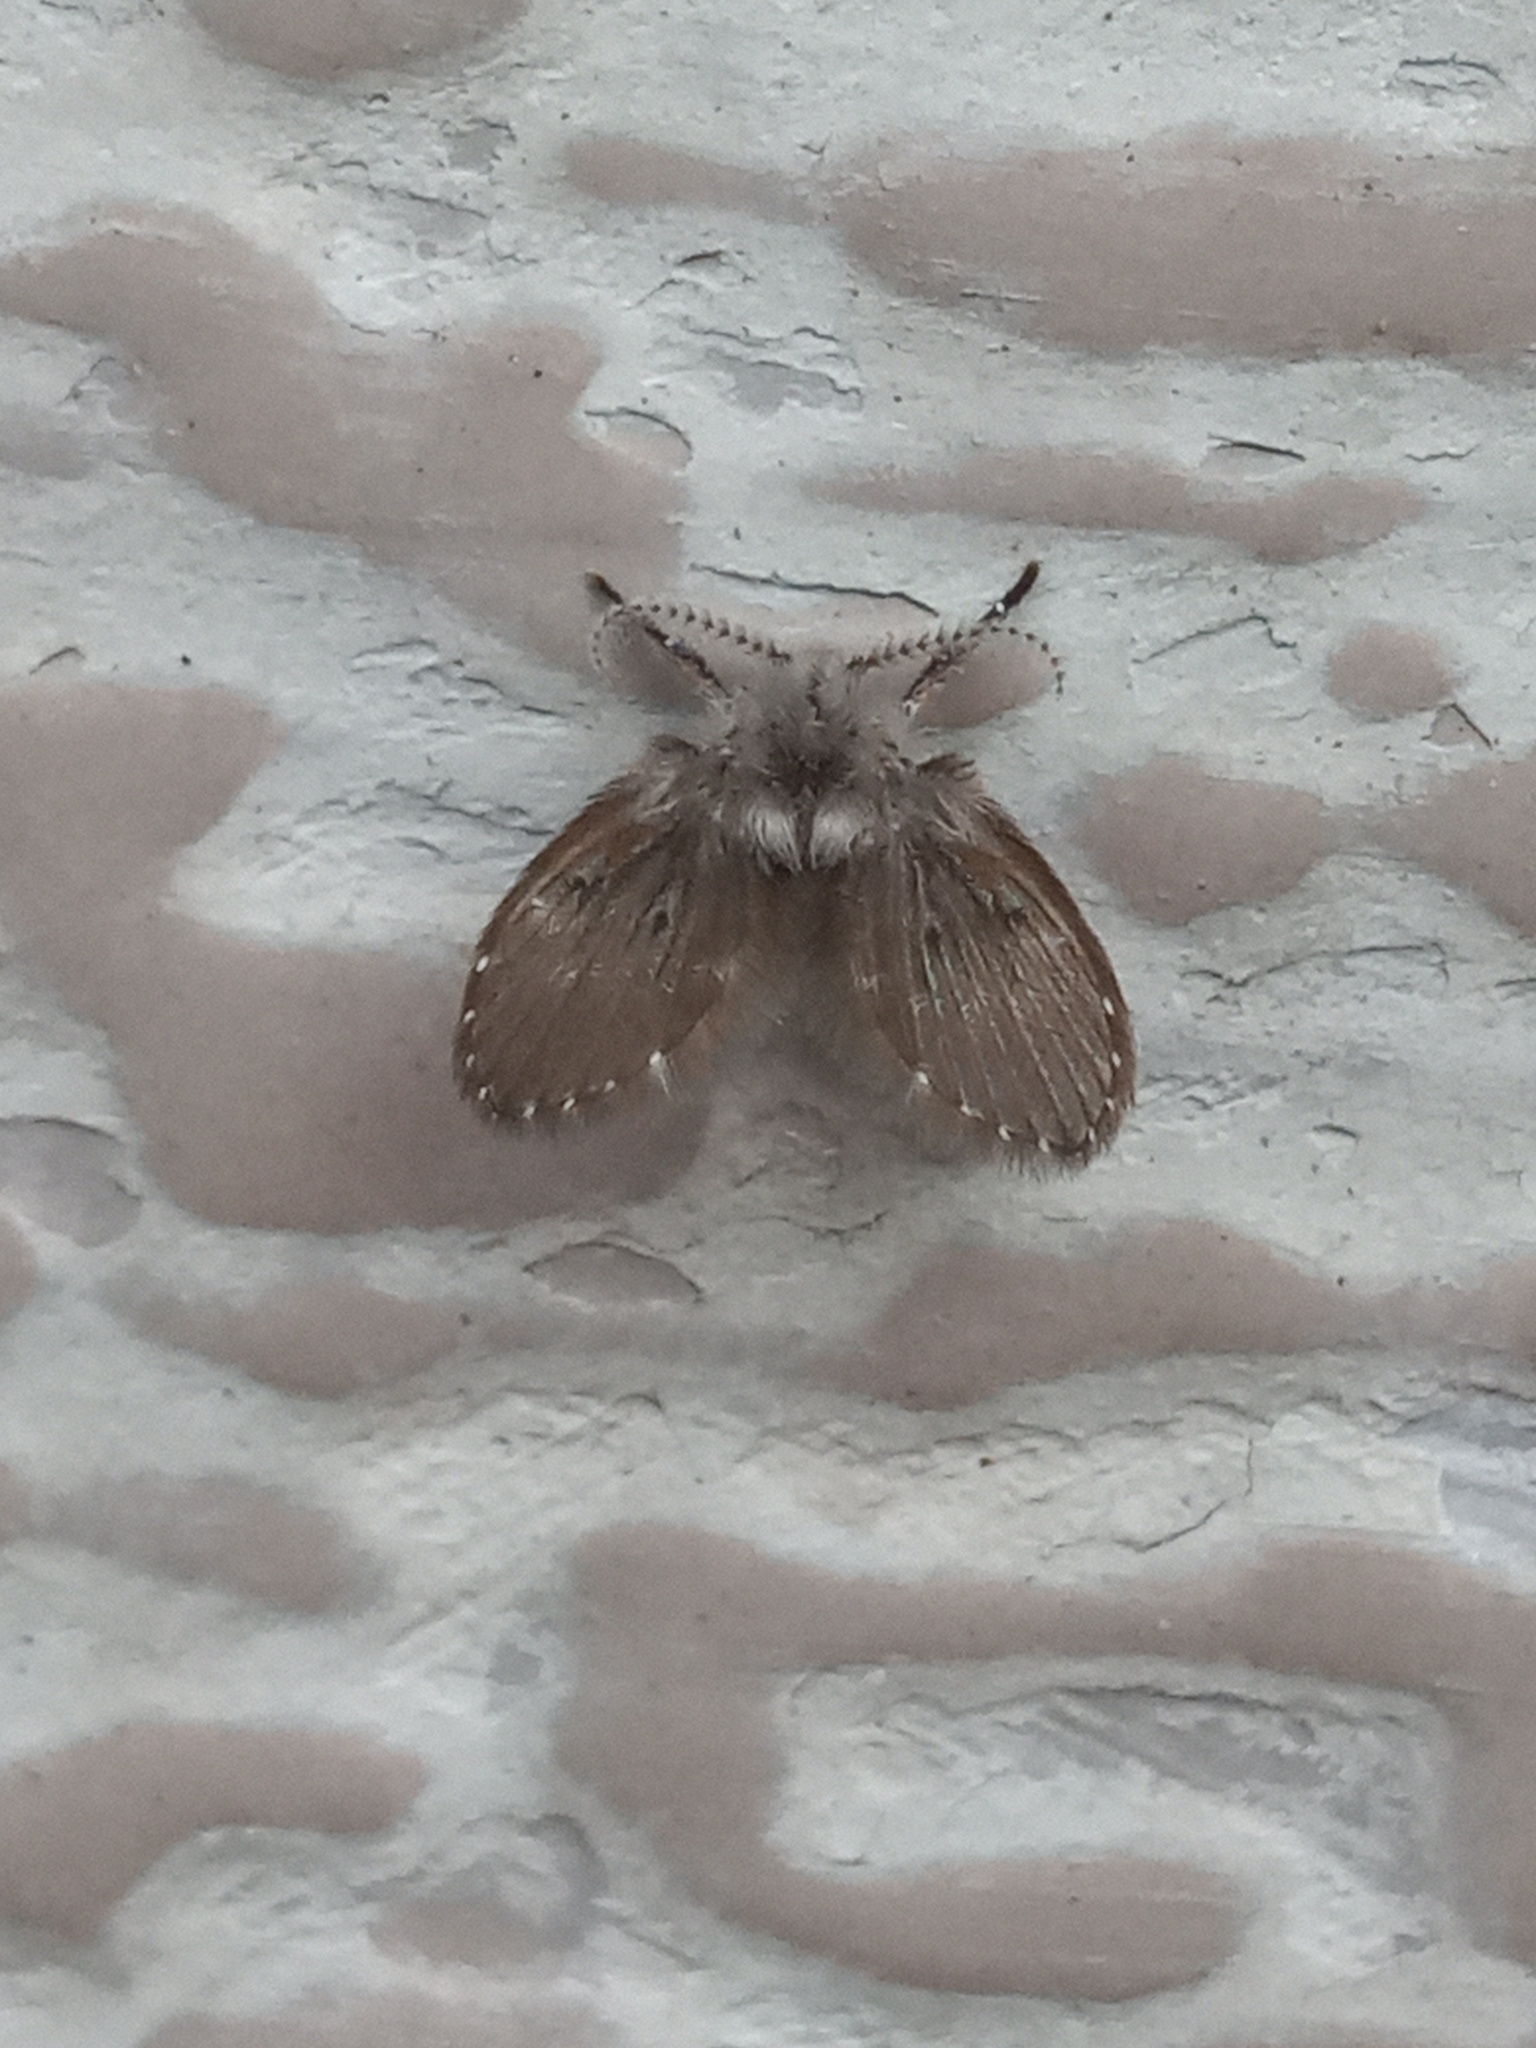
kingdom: Animalia
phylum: Arthropoda
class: Insecta
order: Diptera
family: Psychodidae
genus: Clogmia
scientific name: Clogmia albipunctatus
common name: White-spotted moth fly
